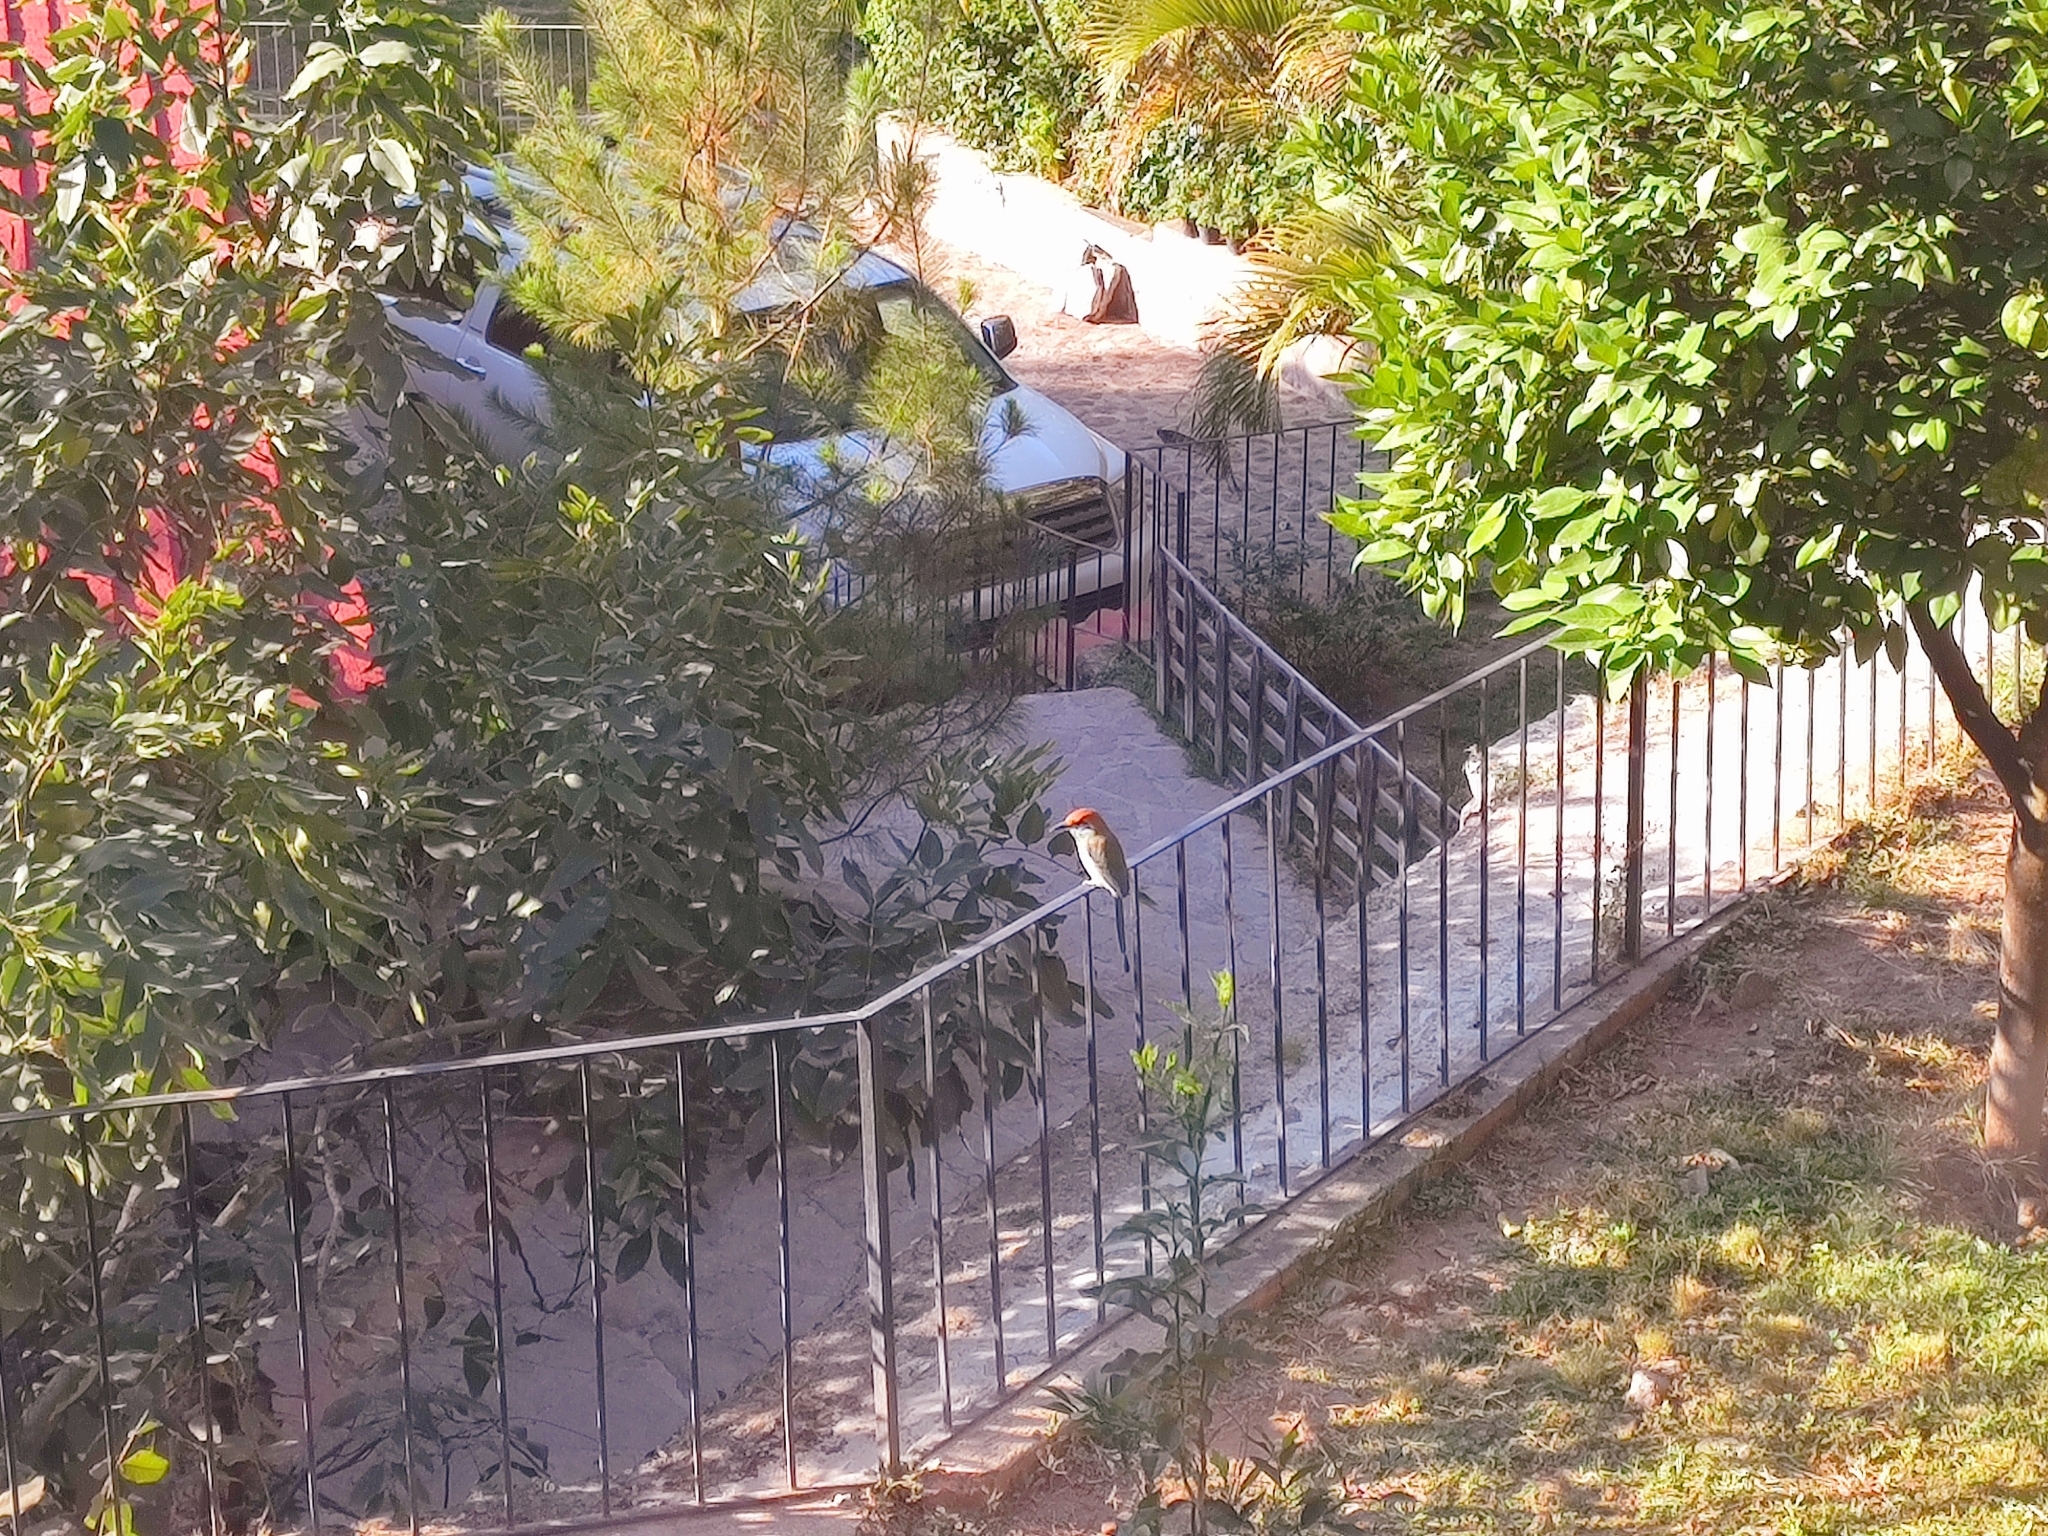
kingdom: Animalia
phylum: Chordata
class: Aves
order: Coraciiformes
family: Momotidae
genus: Momotus
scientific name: Momotus mexicanus
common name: Russet-crowned motmot
